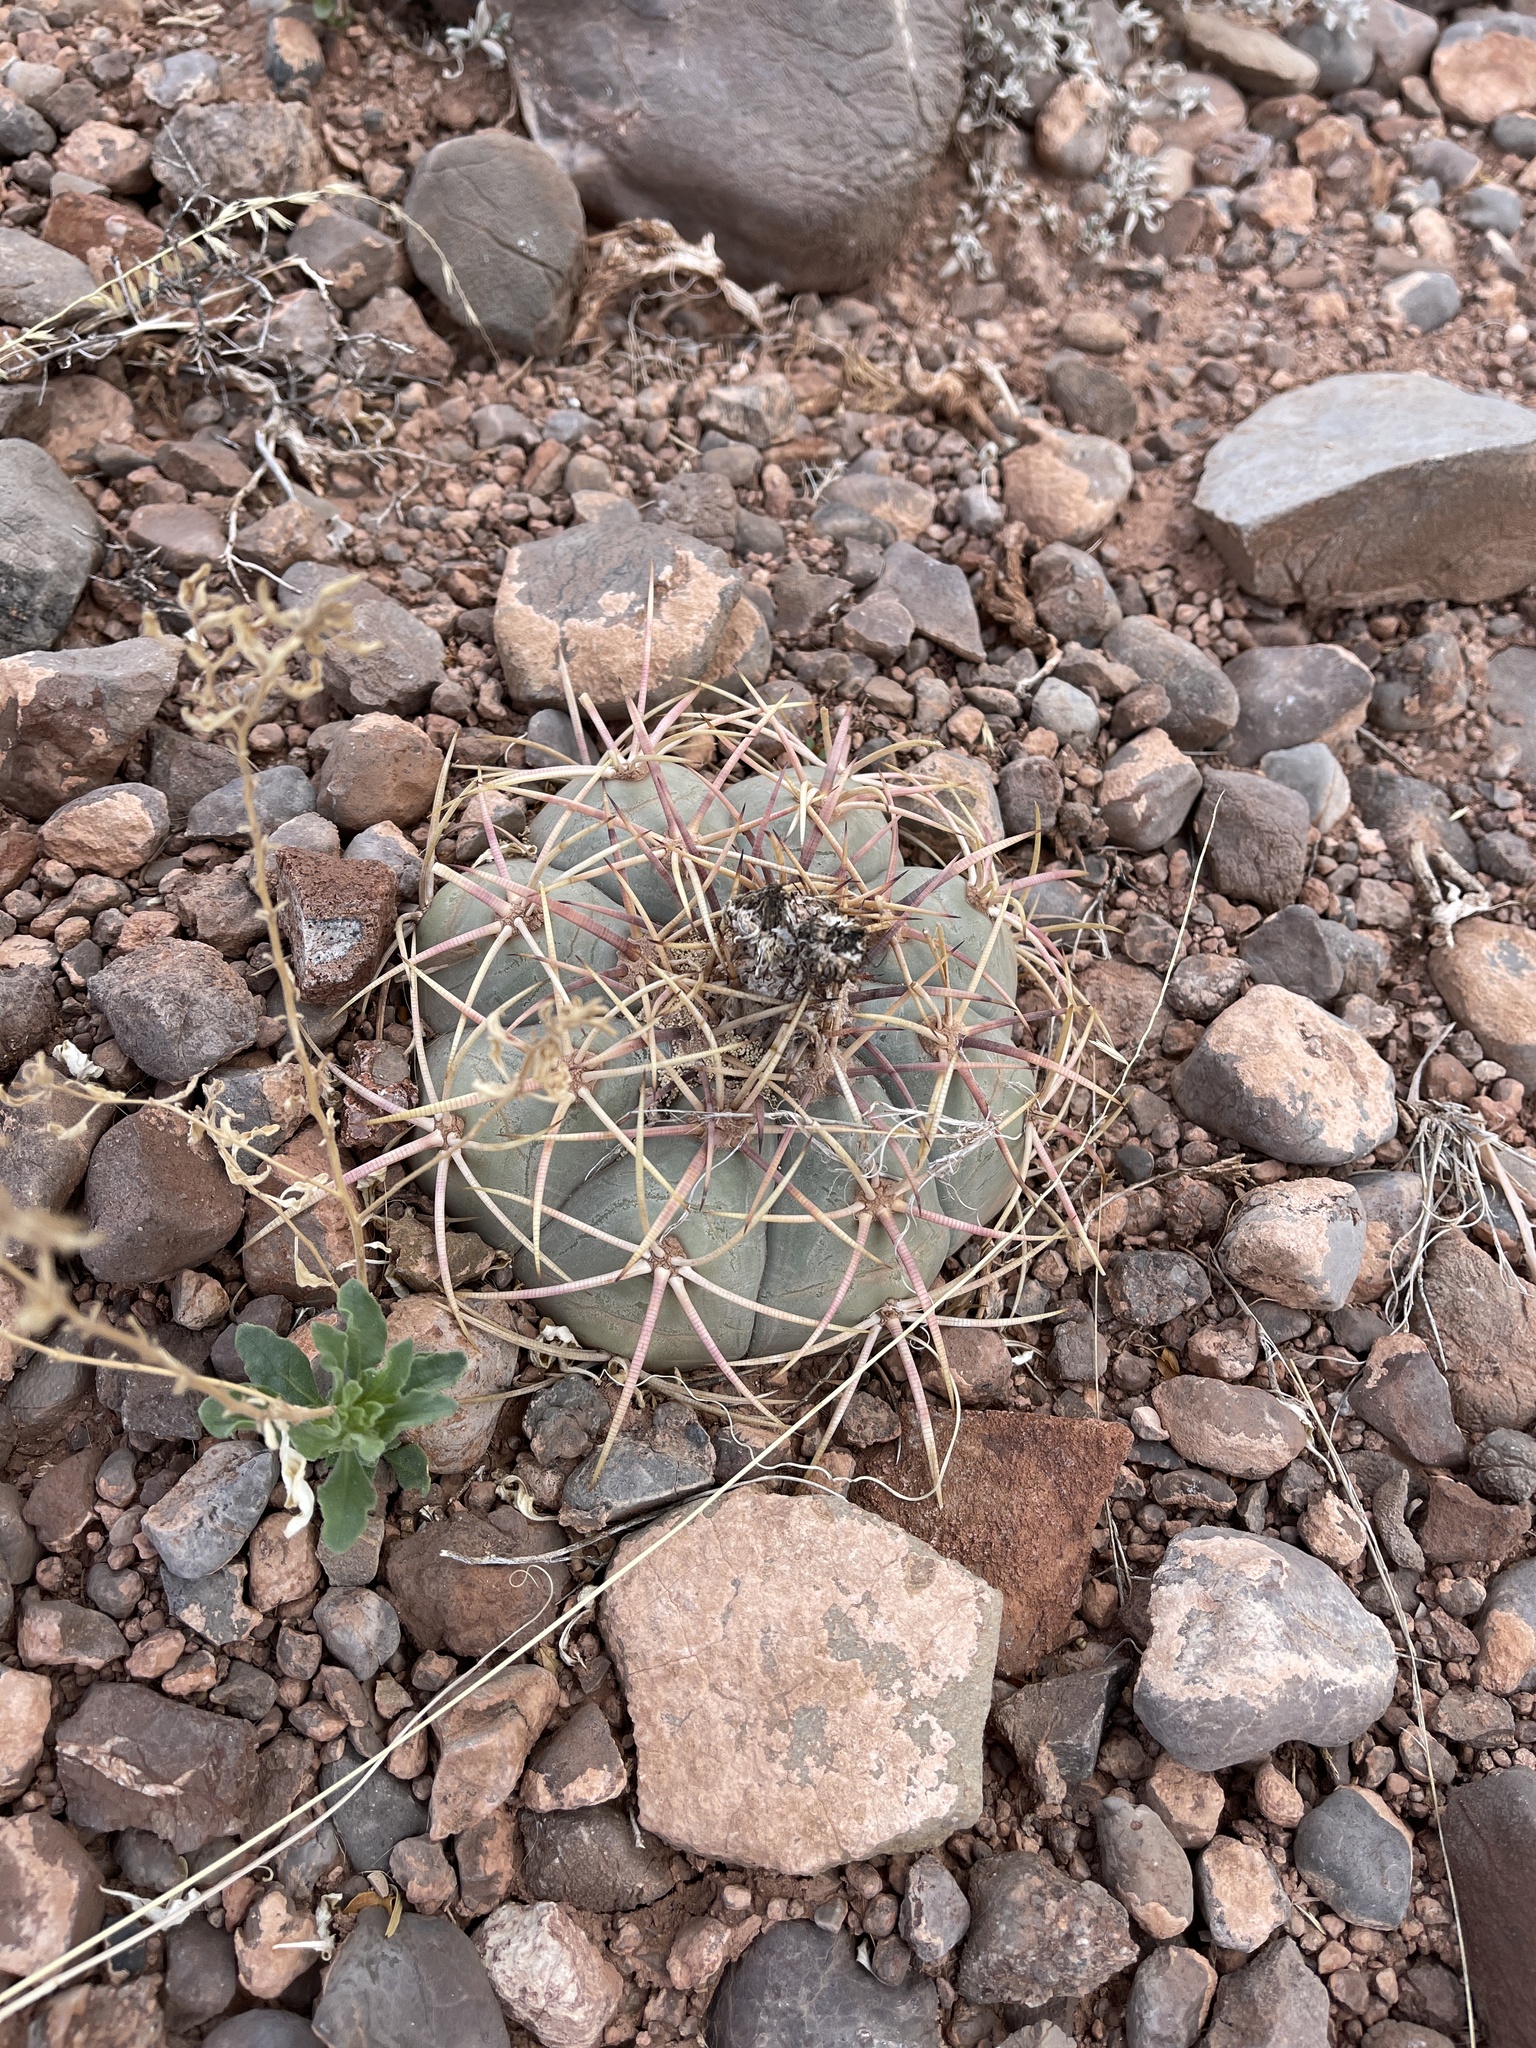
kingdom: Plantae
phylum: Tracheophyta
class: Magnoliopsida
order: Caryophyllales
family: Cactaceae
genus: Echinocactus
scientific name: Echinocactus horizonthalonius
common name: Devilshead
